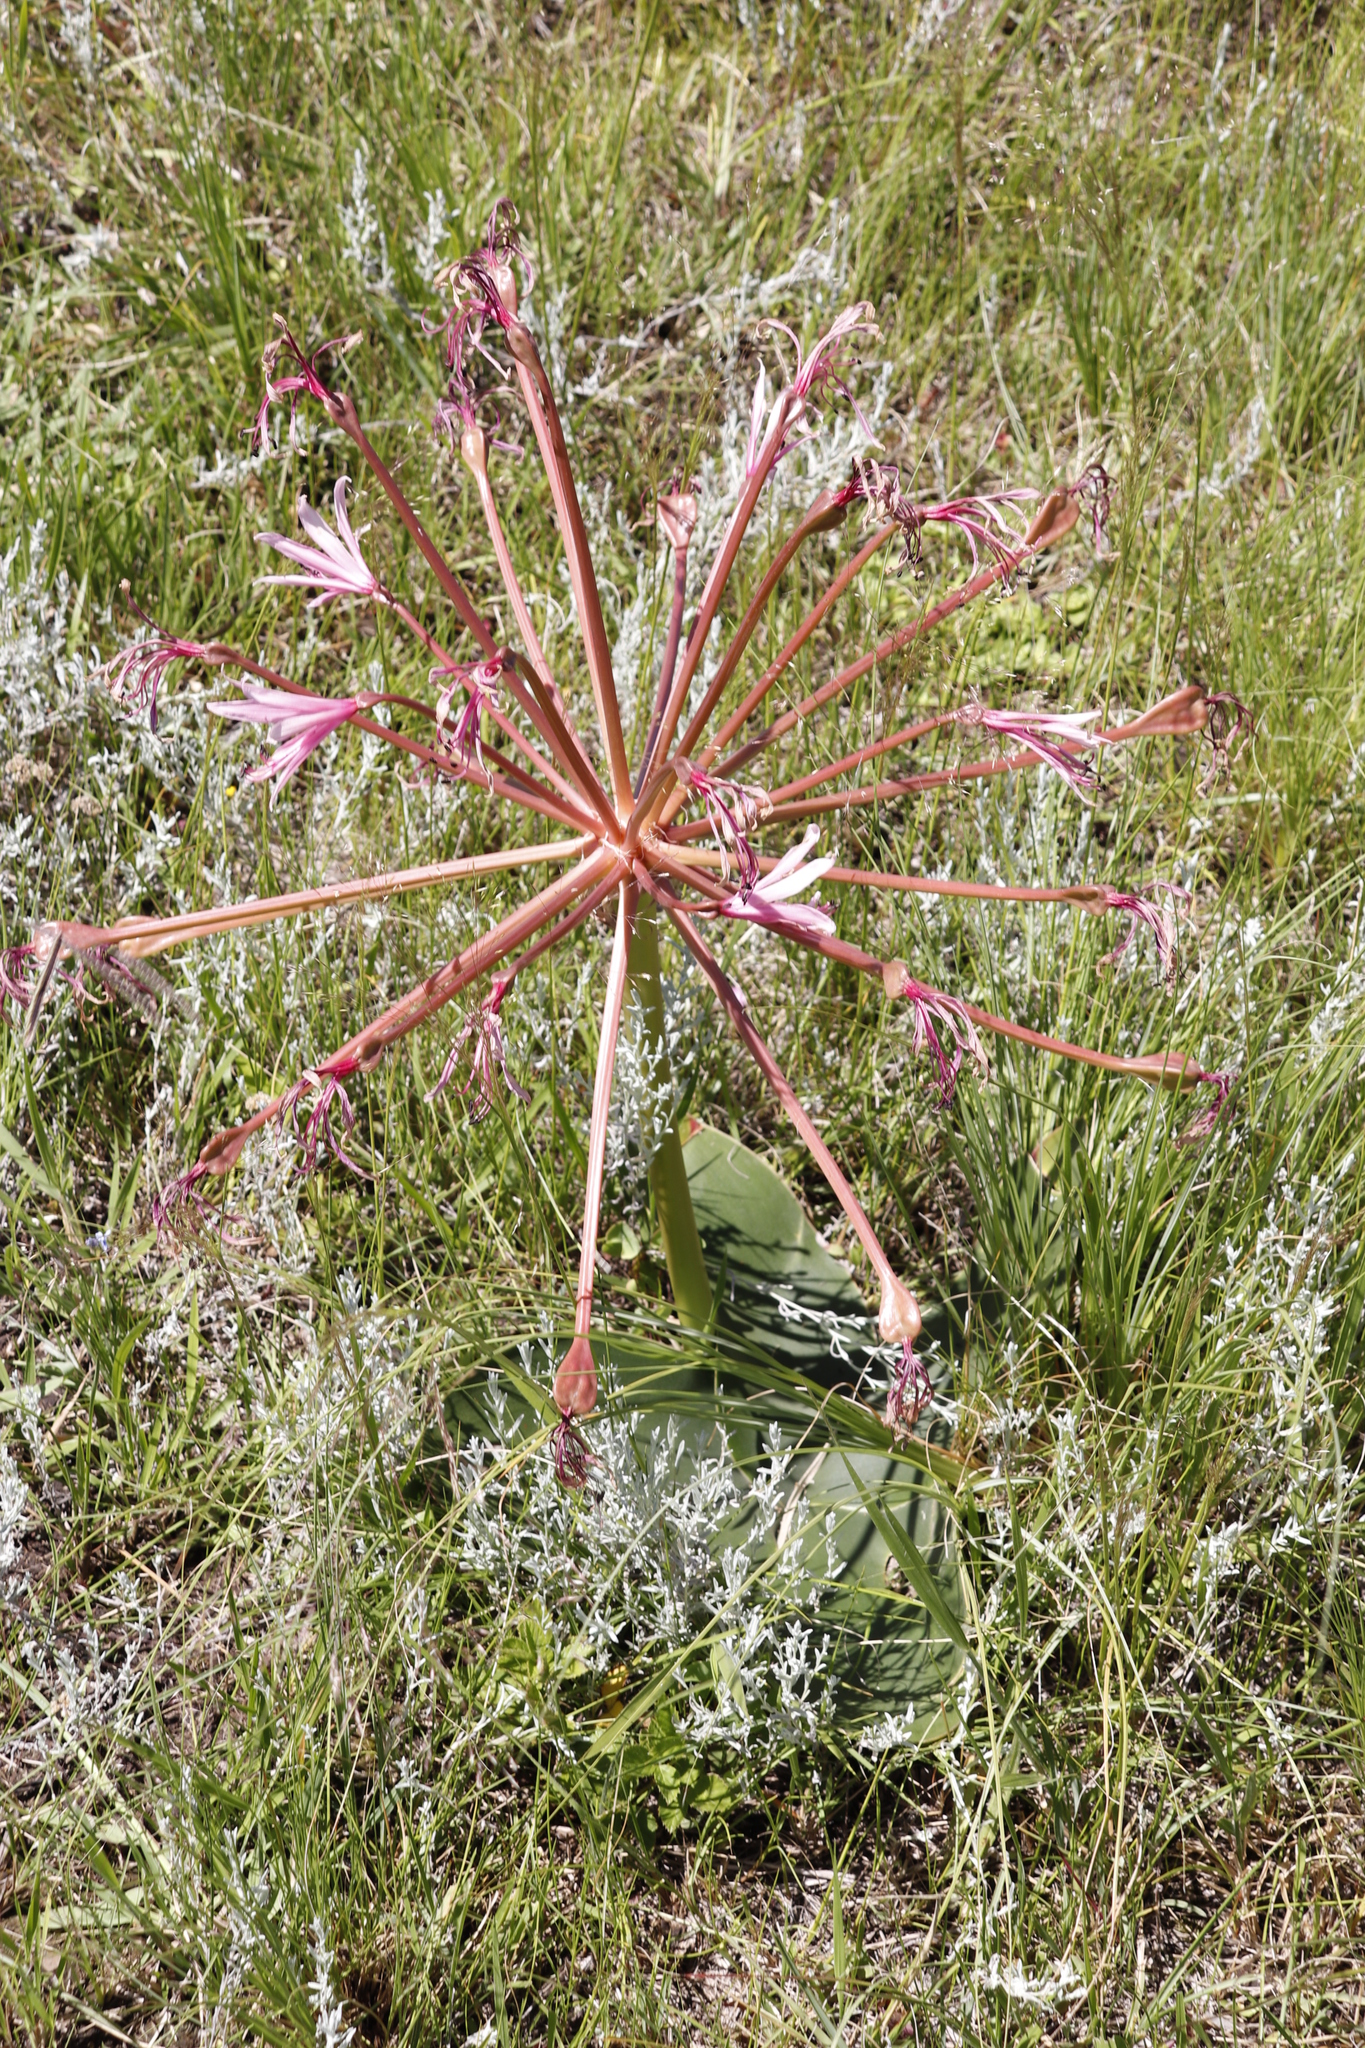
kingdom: Plantae
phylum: Tracheophyta
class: Liliopsida
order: Asparagales
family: Amaryllidaceae
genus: Brunsvigia
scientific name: Brunsvigia radulosa
